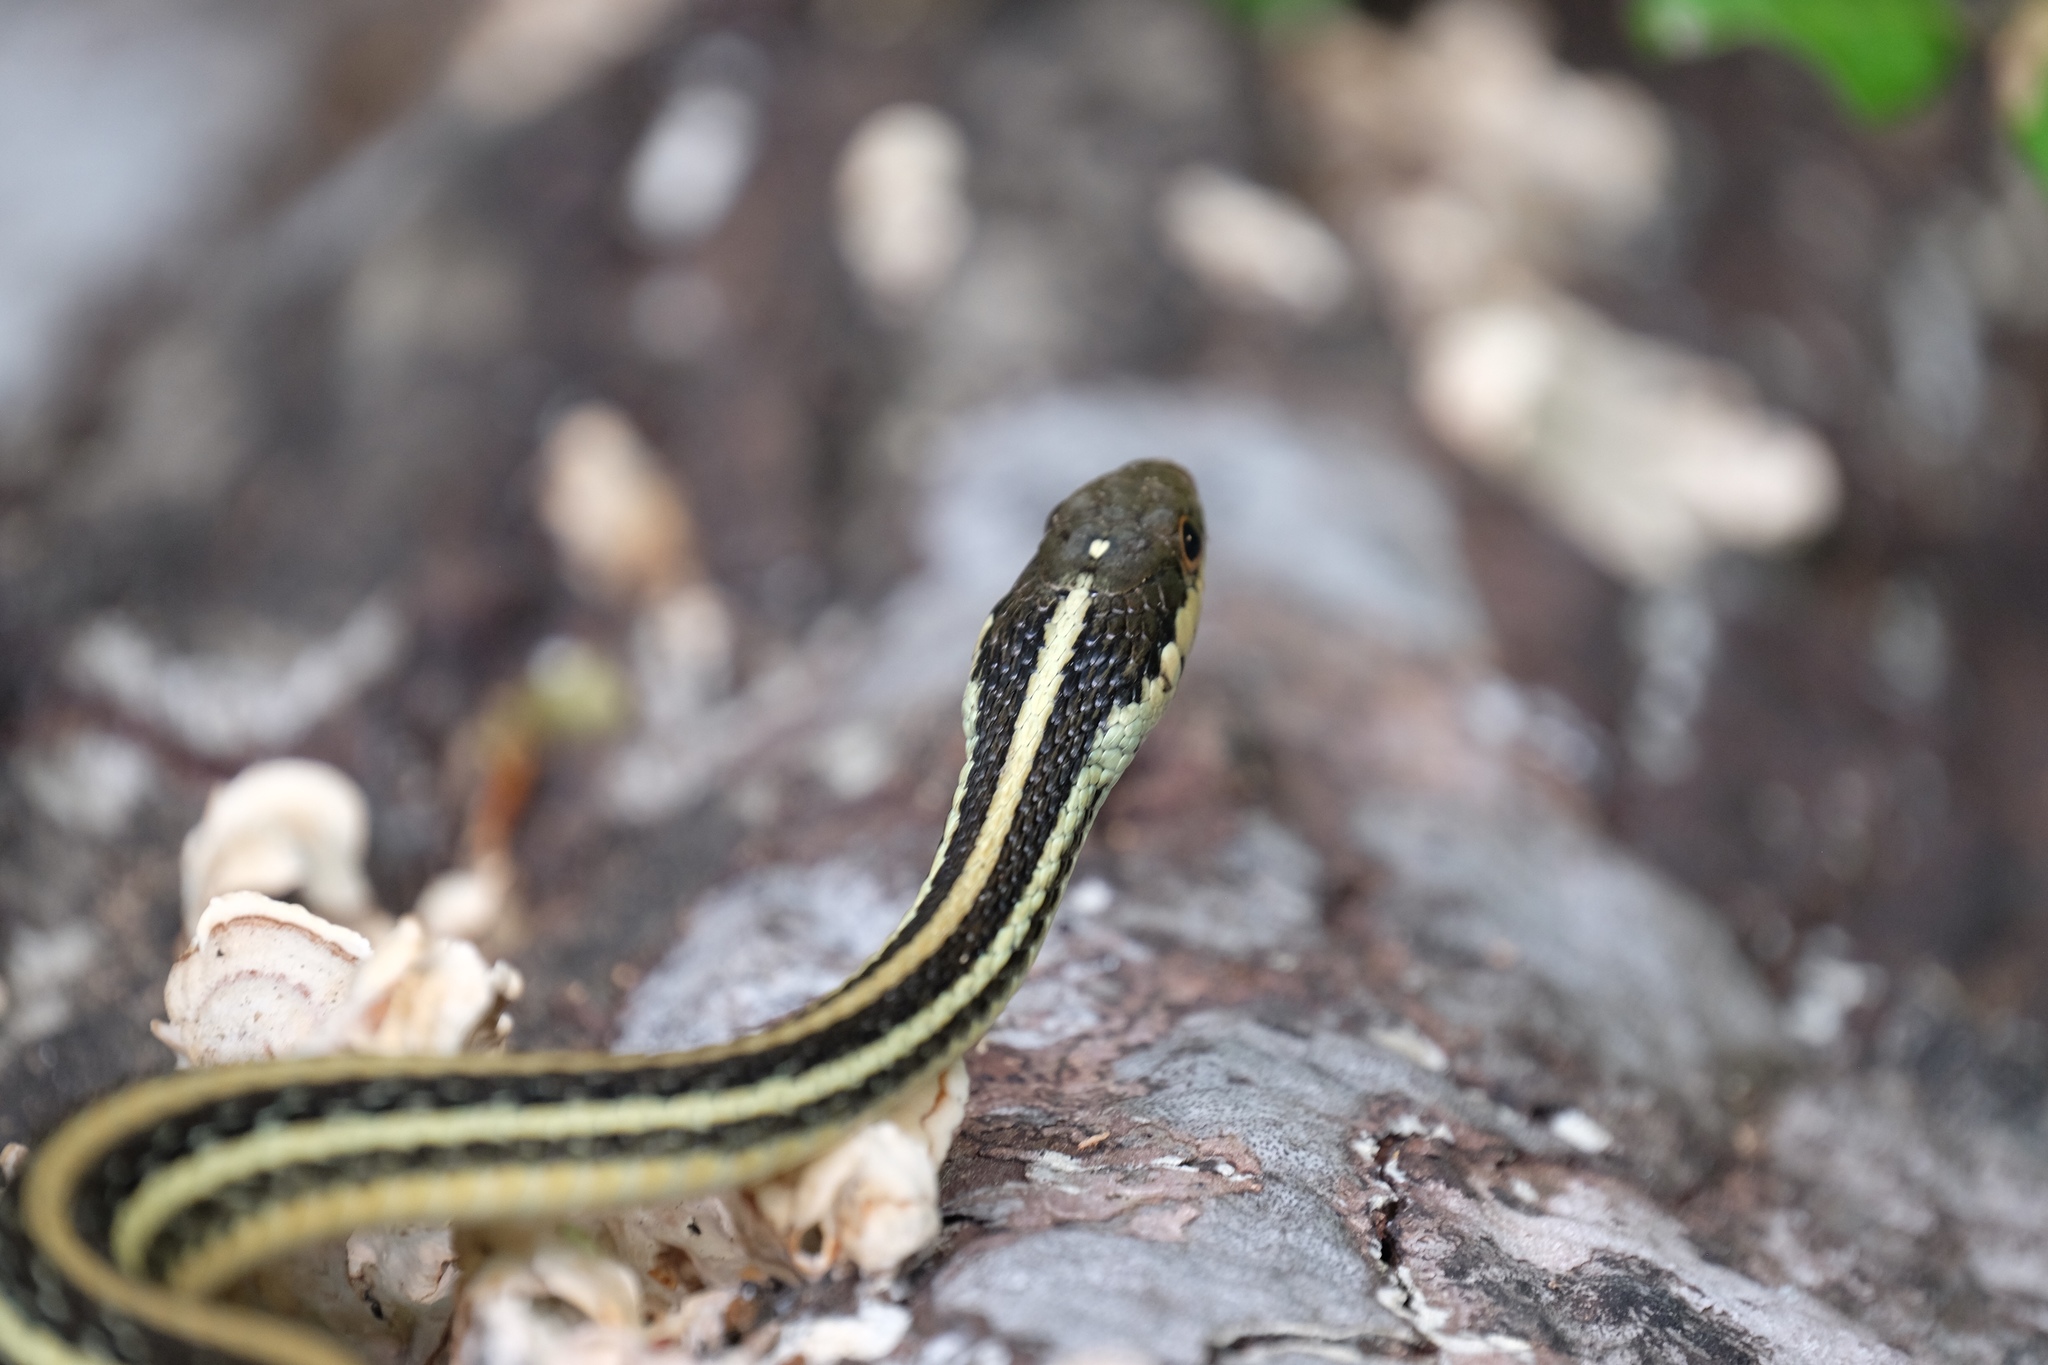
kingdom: Animalia
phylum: Chordata
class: Squamata
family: Colubridae
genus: Thamnophis
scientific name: Thamnophis proximus
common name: Western ribbon snake
